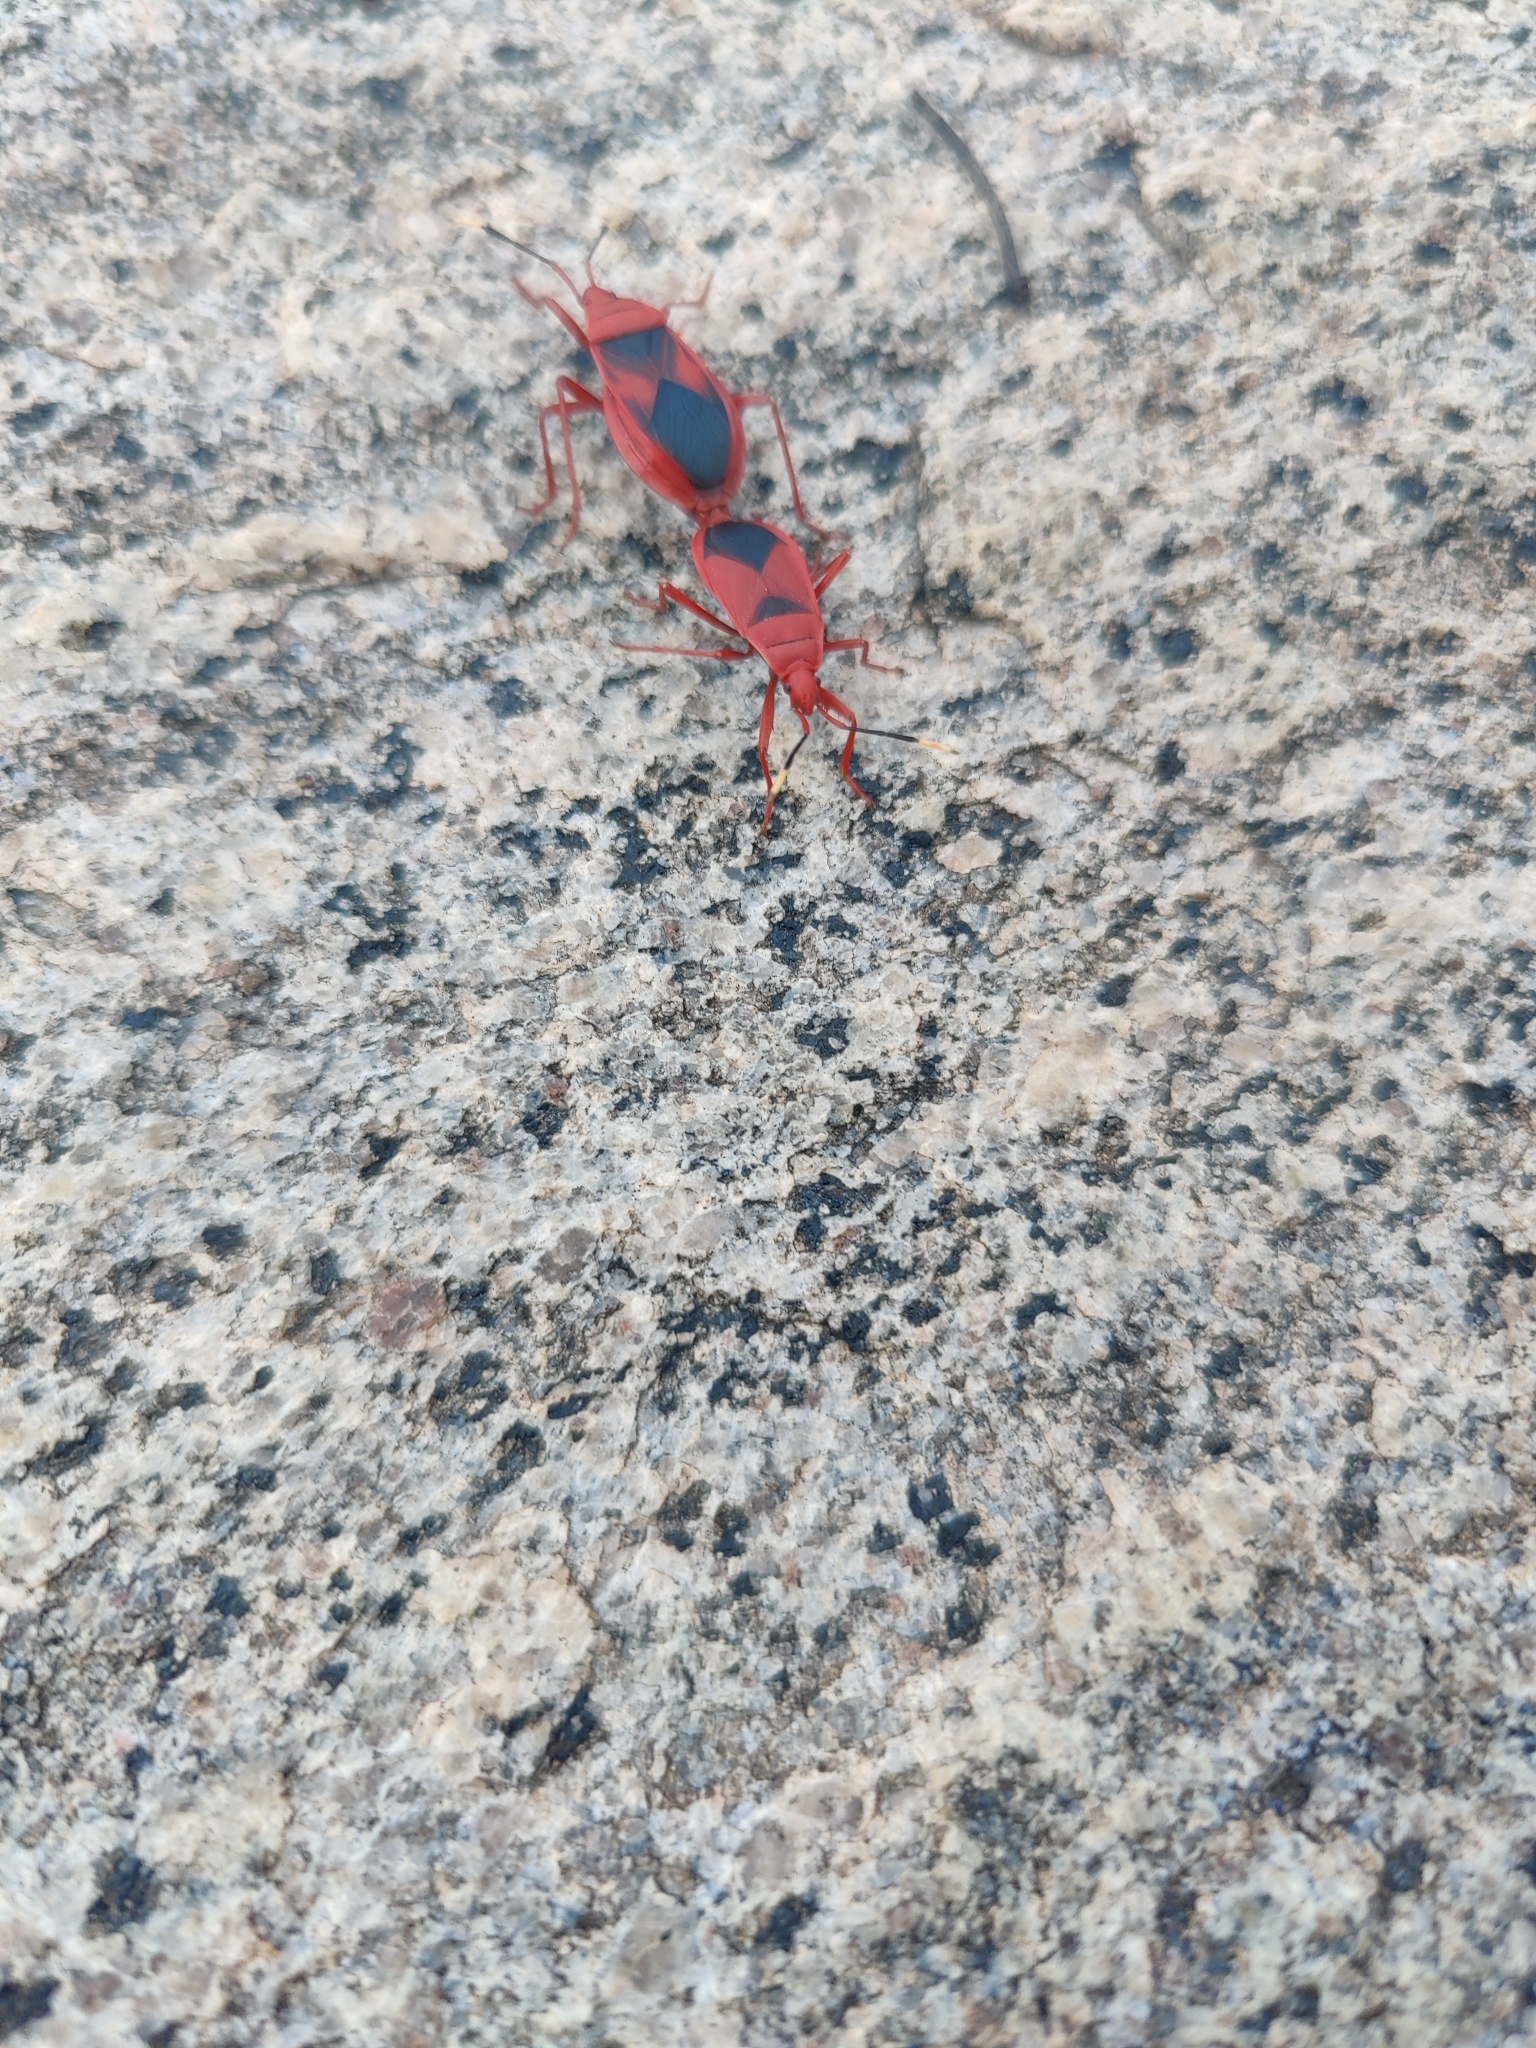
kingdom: Animalia
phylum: Arthropoda
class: Insecta
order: Hemiptera
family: Pyrrhocoridae
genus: Probergrothius
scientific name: Probergrothius
